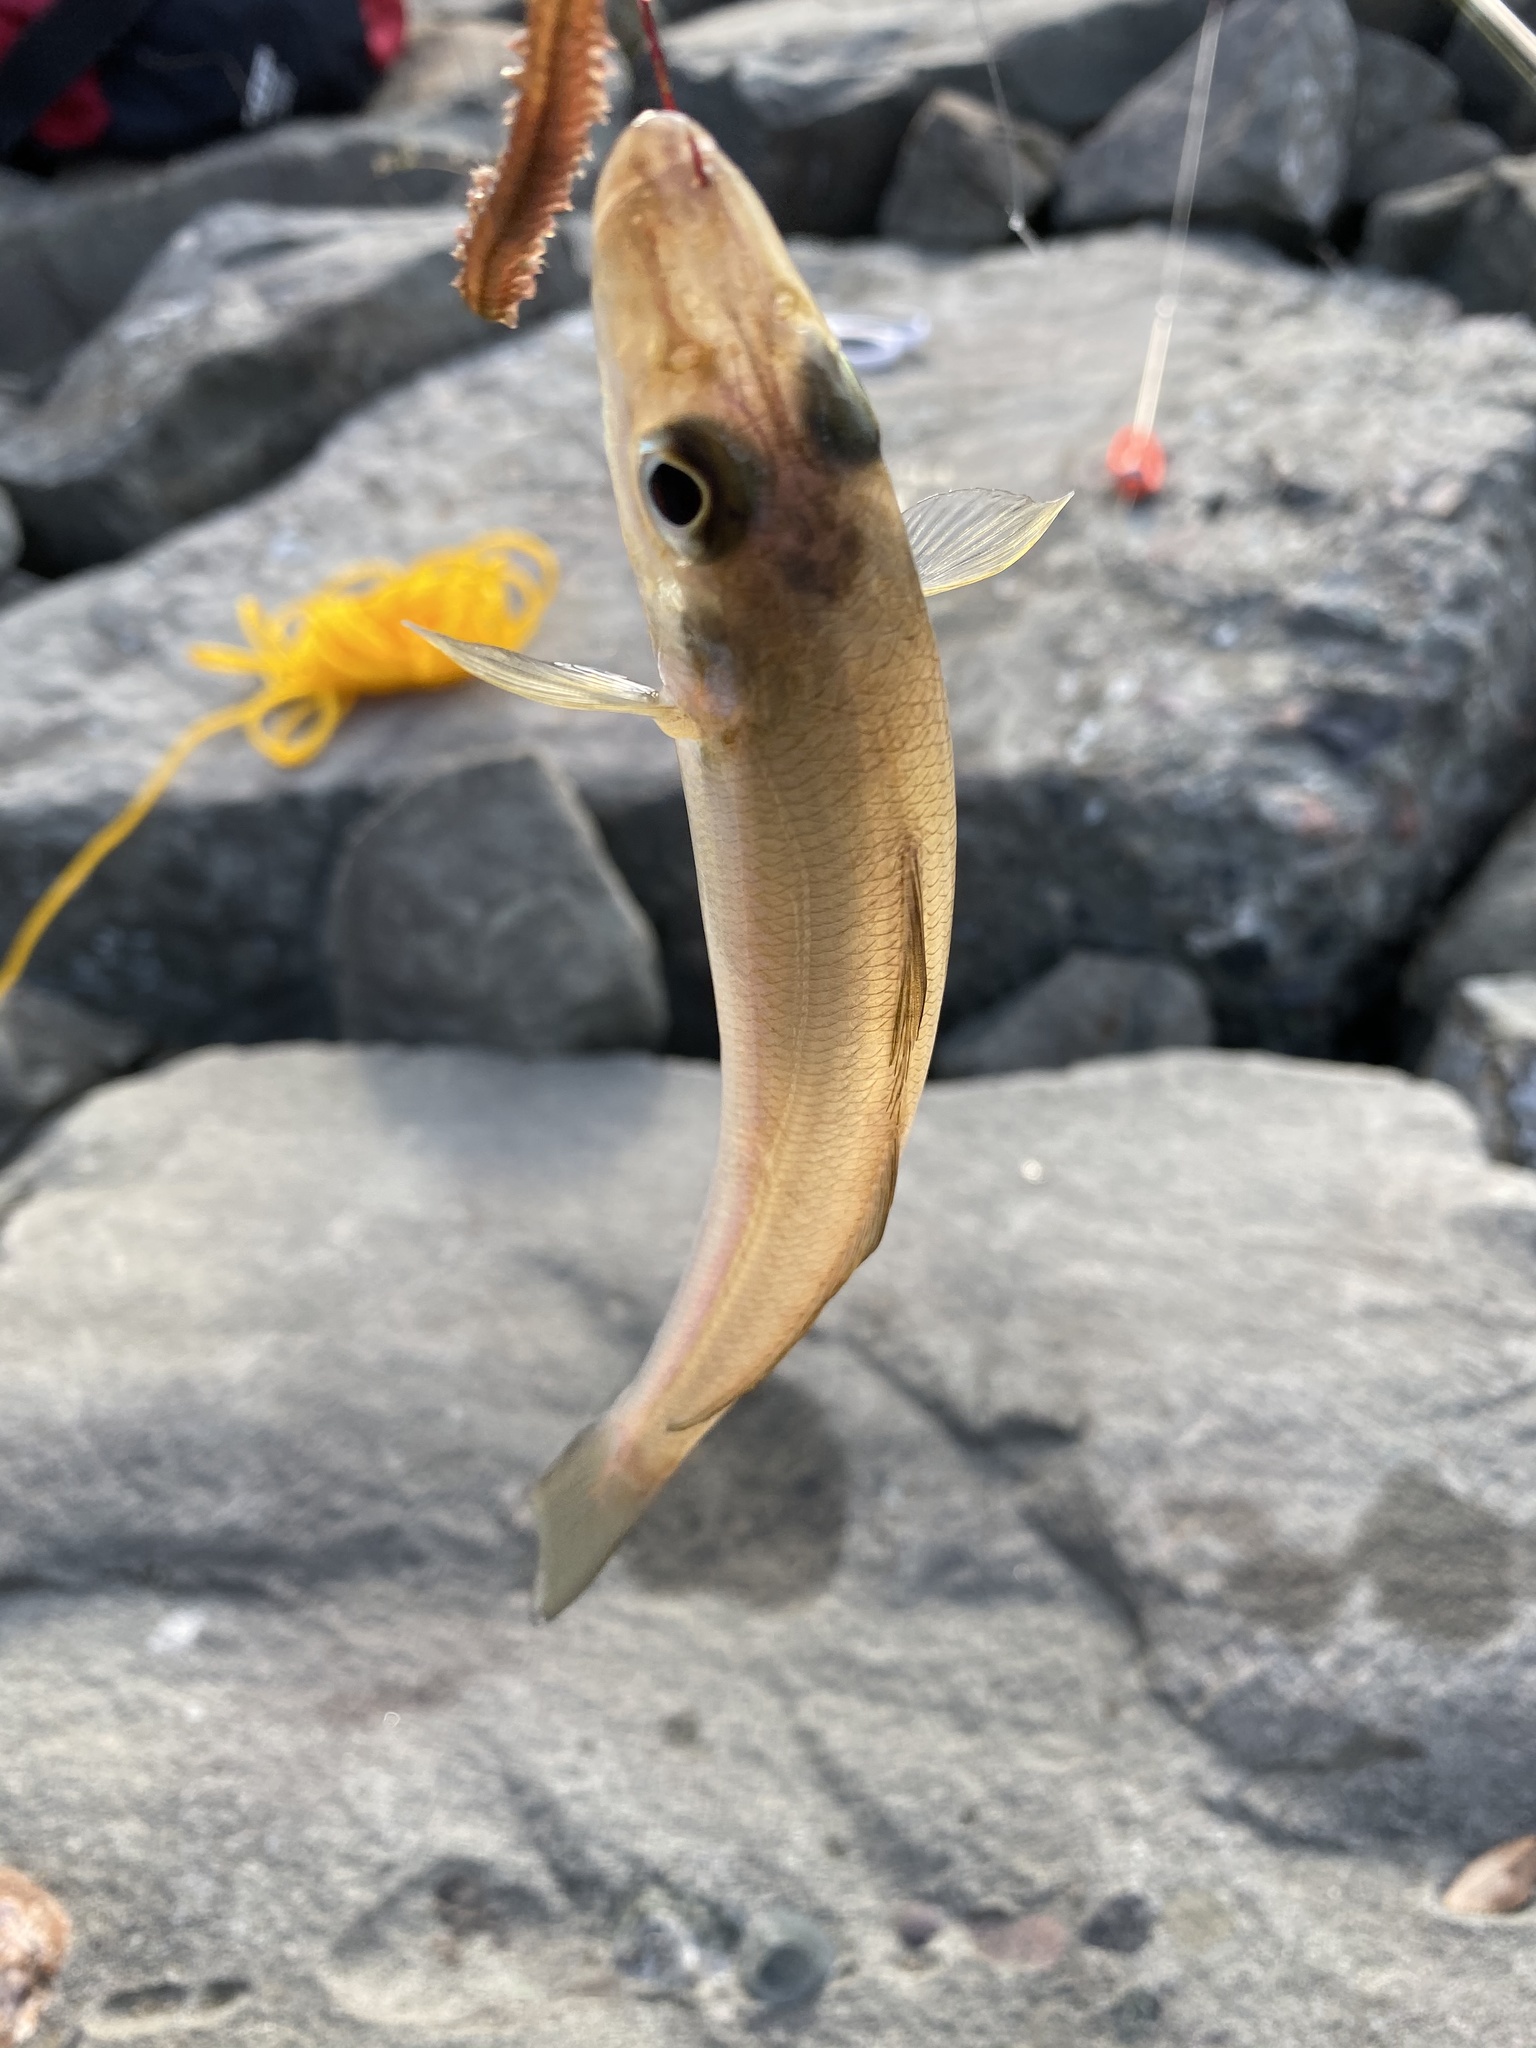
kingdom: Animalia
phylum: Chordata
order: Perciformes
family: Sillaginidae
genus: Sillago
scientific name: Sillago japonica
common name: Japanese sillago
